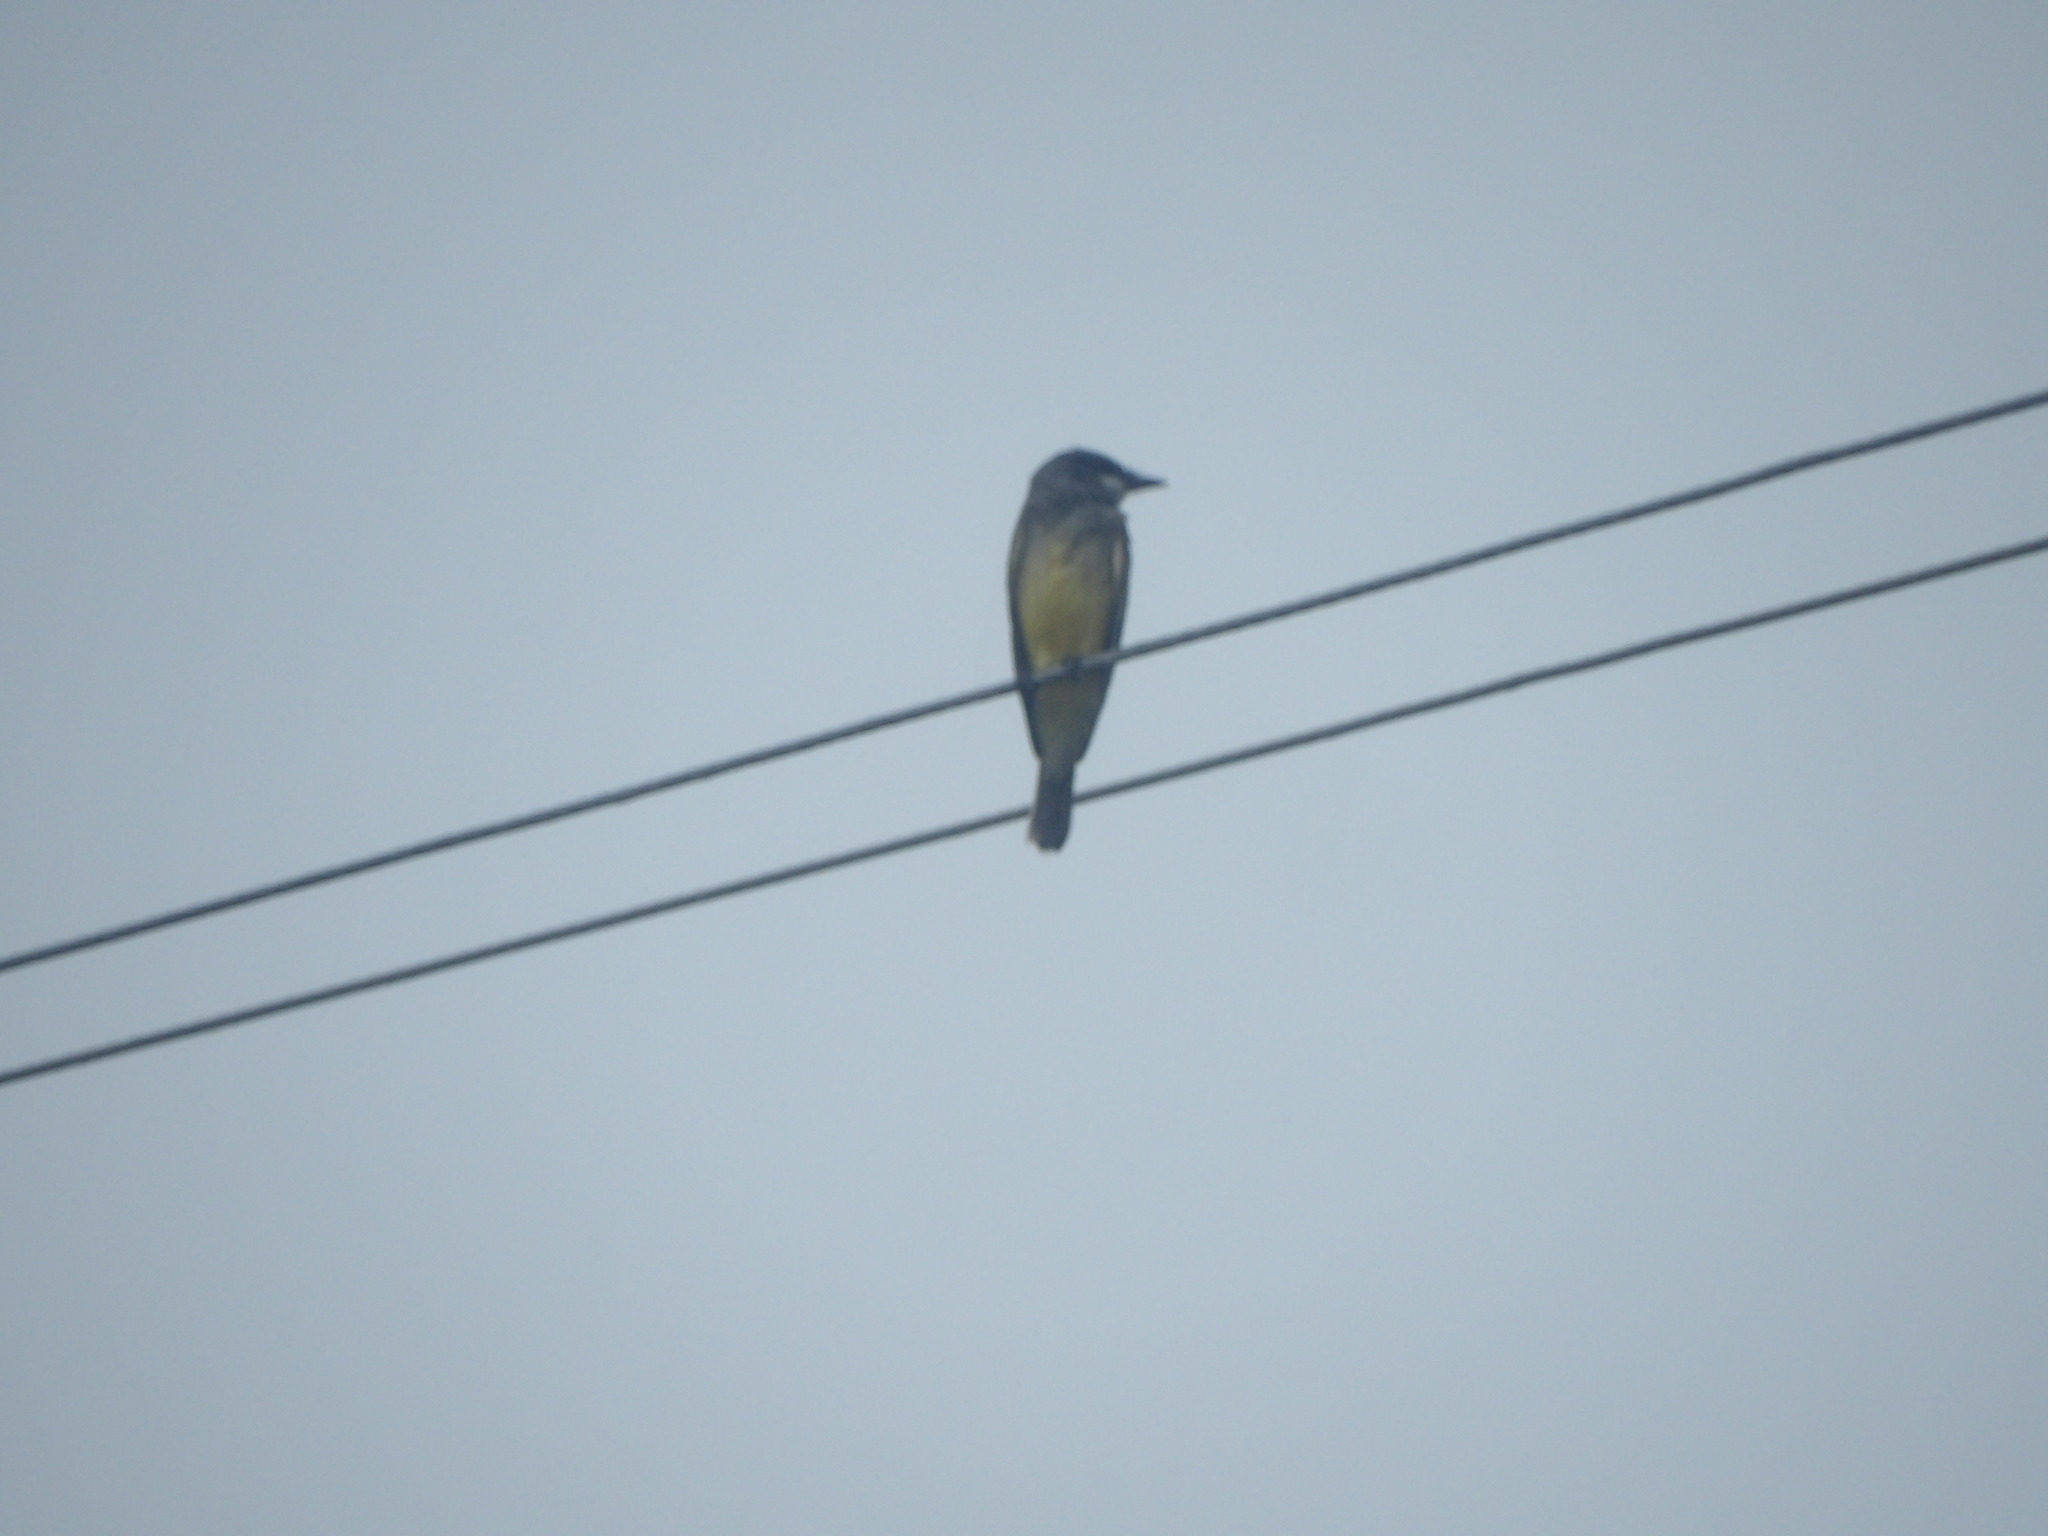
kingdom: Animalia
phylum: Chordata
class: Aves
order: Passeriformes
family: Tyrannidae
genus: Tyrannus
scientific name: Tyrannus vociferans
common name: Cassin's kingbird
